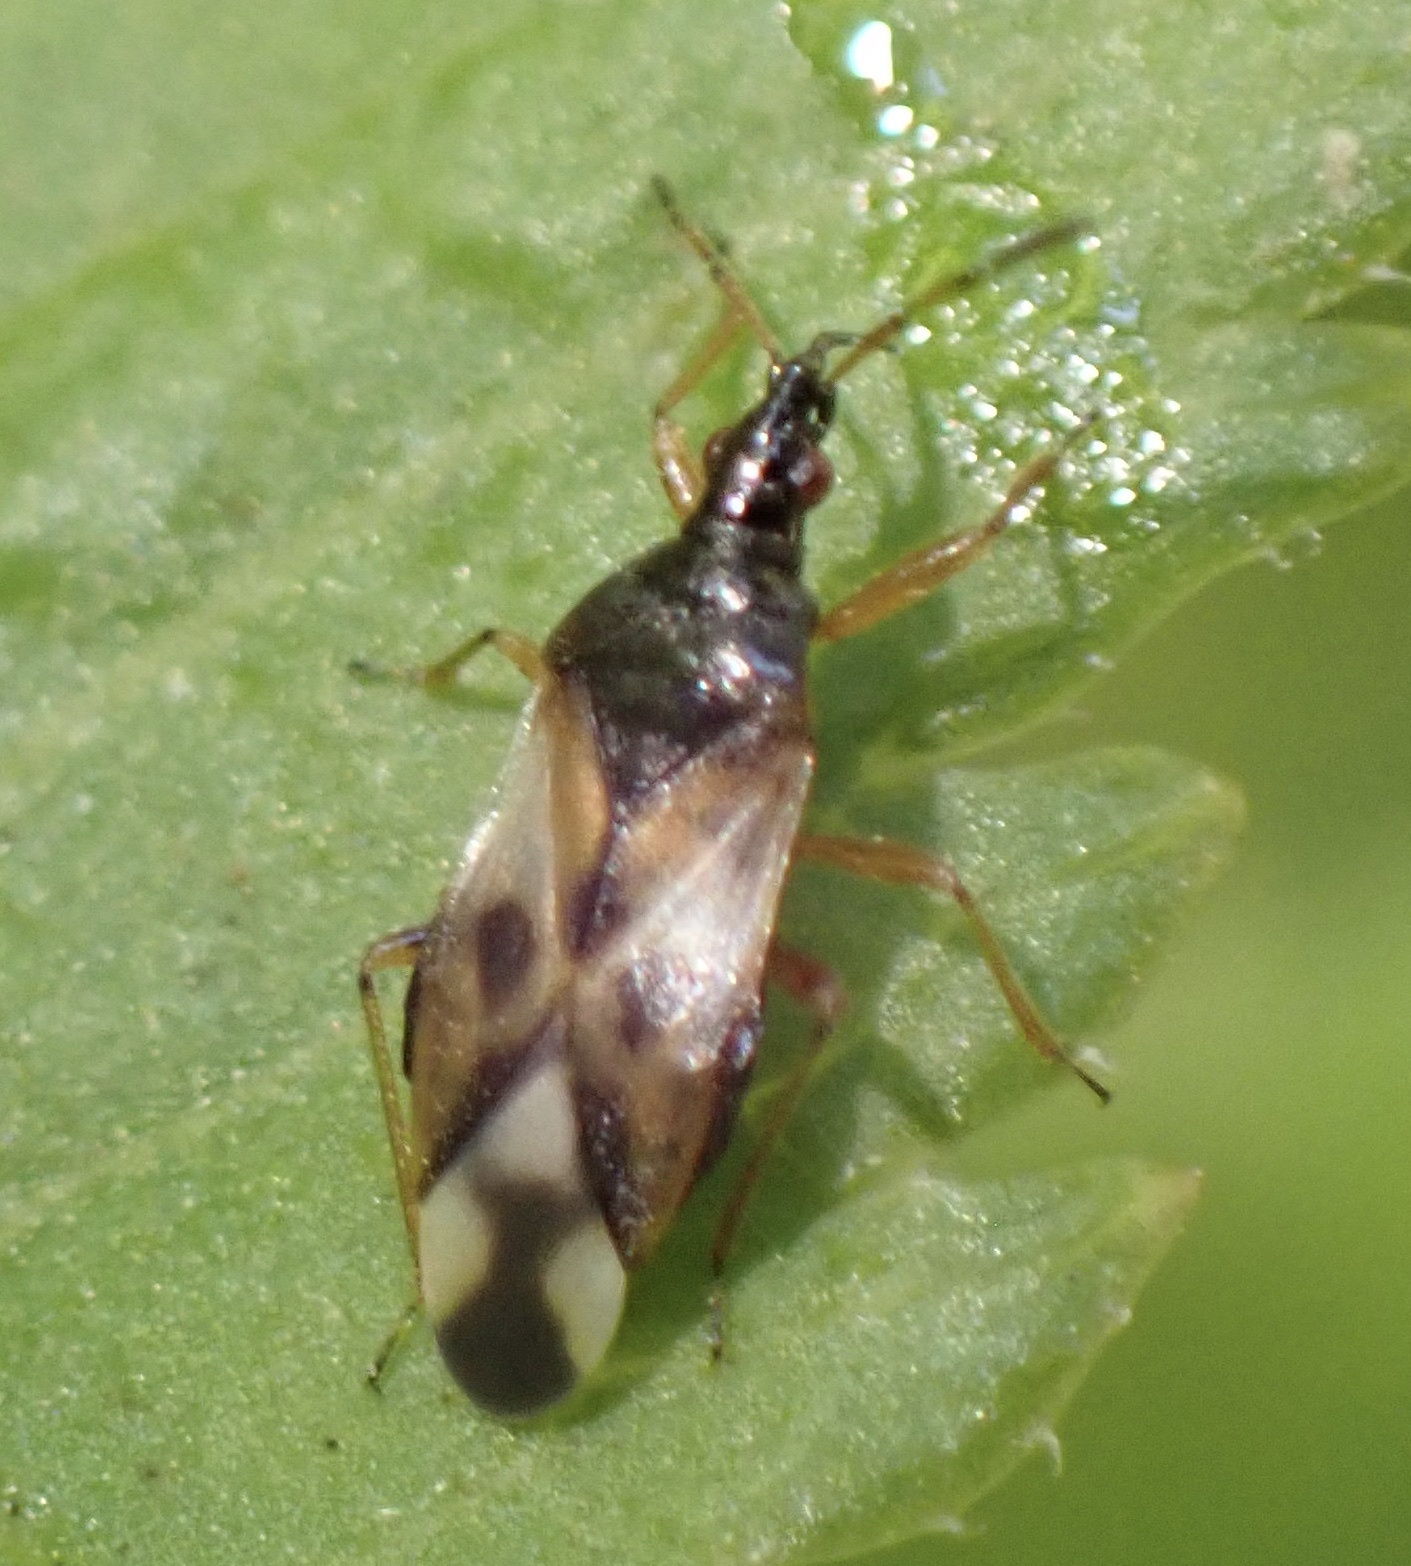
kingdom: Animalia
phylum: Arthropoda
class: Insecta
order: Hemiptera
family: Anthocoridae
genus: Anthocoris
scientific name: Anthocoris nemorum
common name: Minute pirate bug
